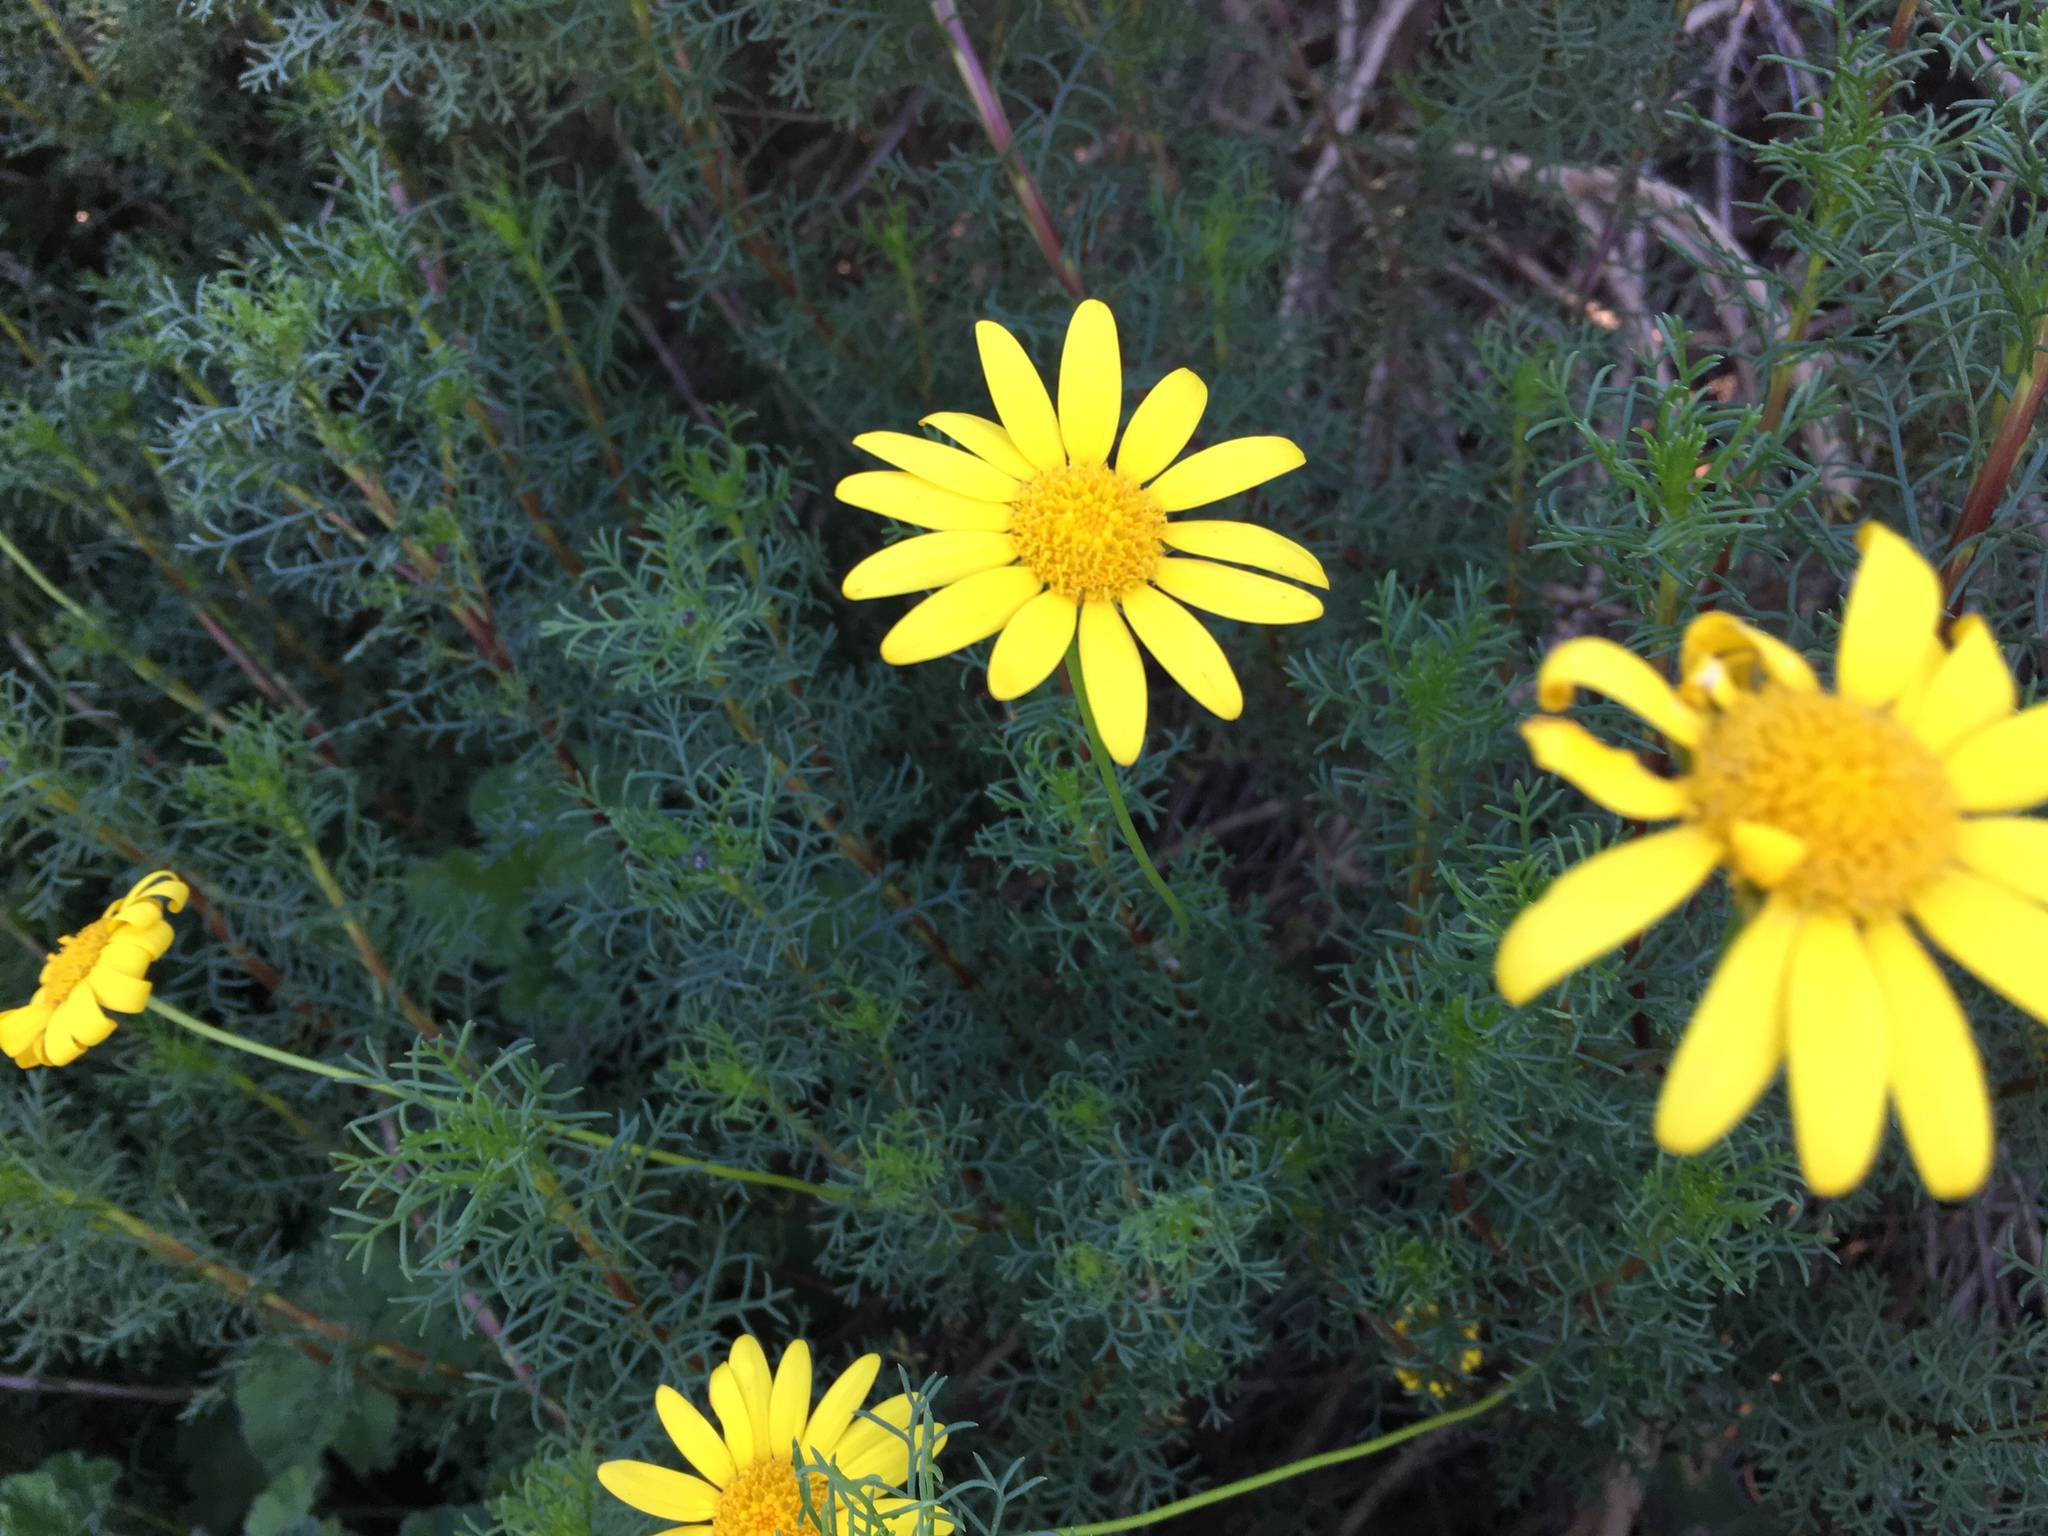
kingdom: Plantae
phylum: Tracheophyta
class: Magnoliopsida
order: Asterales
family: Asteraceae
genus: Euryops
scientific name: Euryops abrotanifolius
